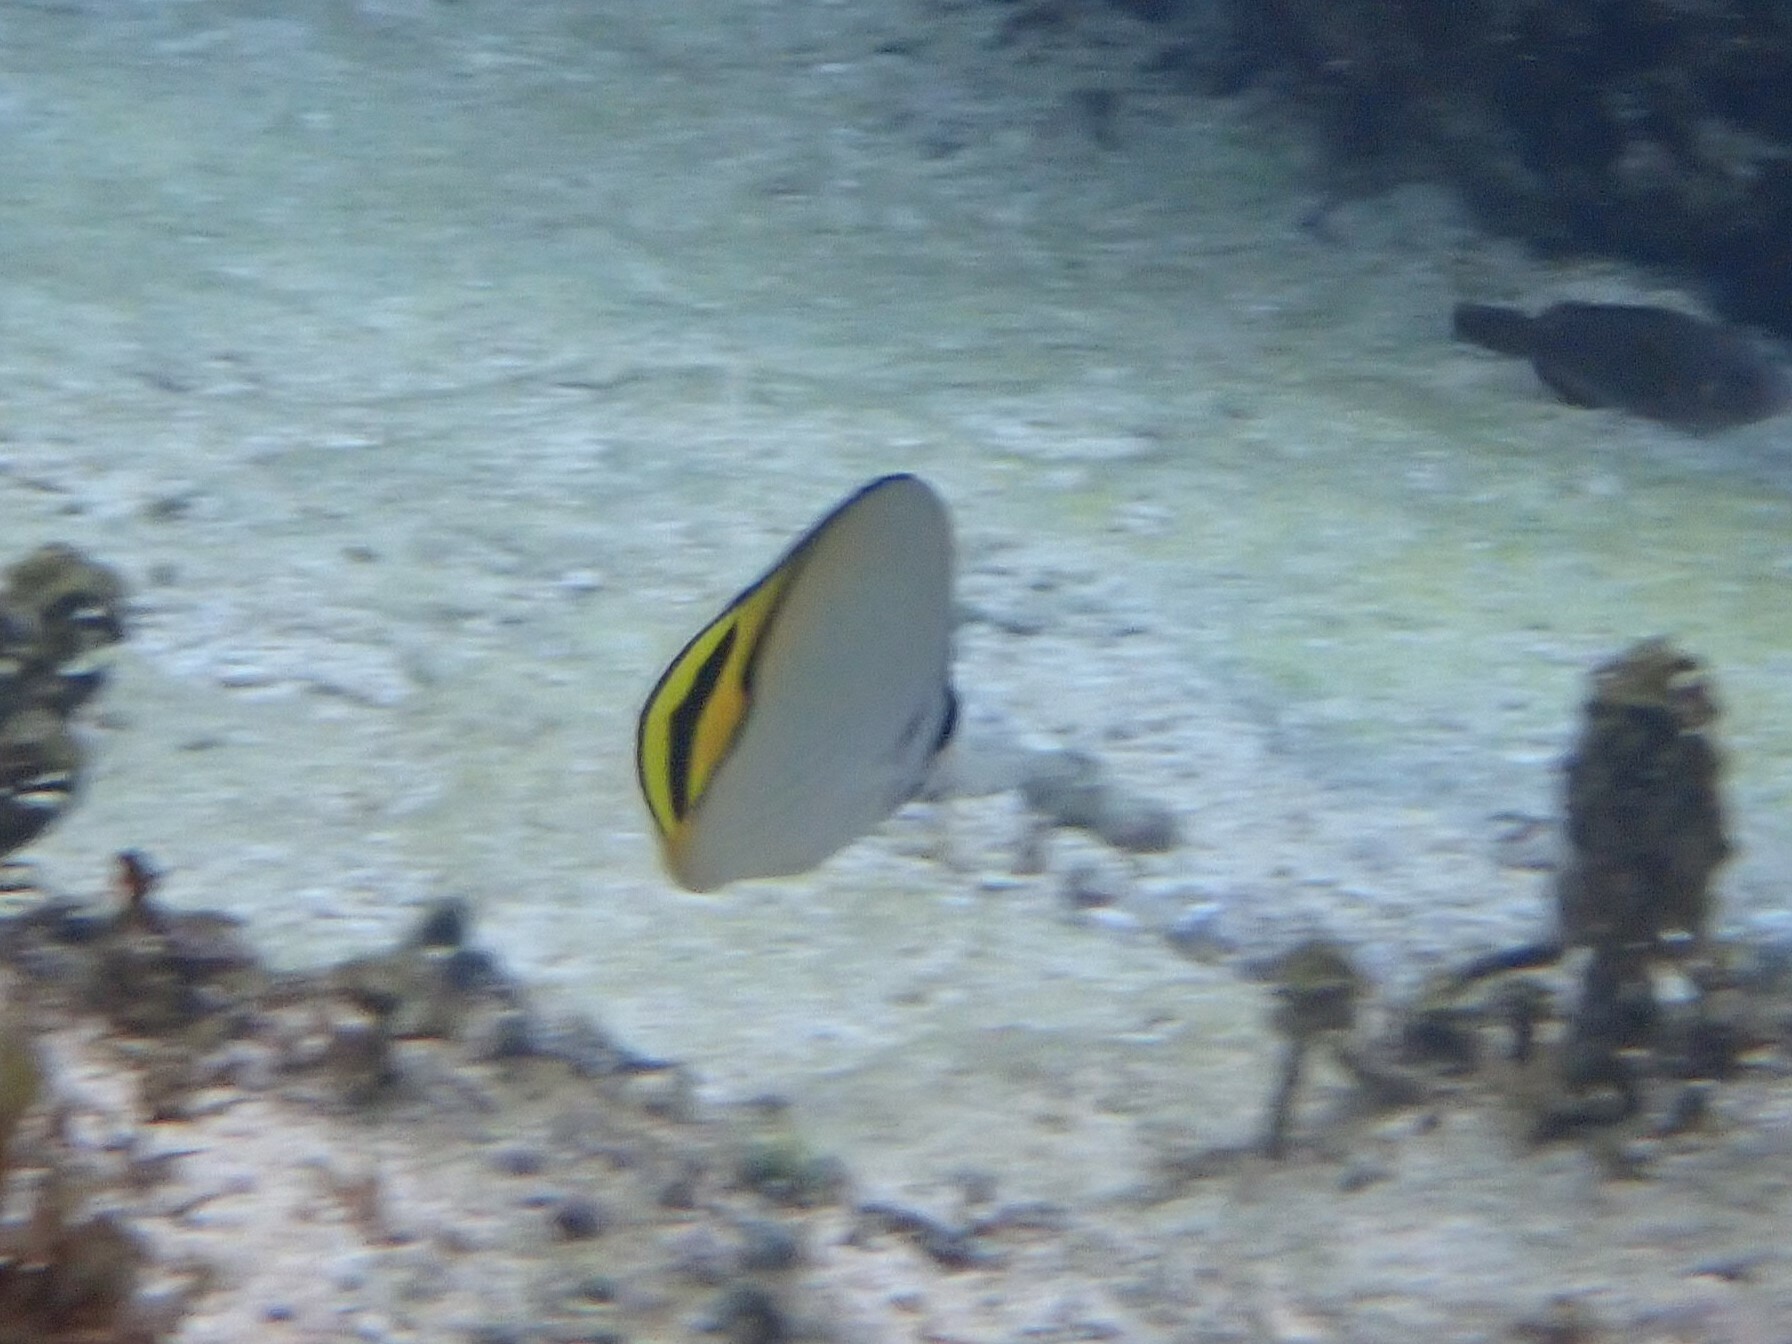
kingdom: Animalia
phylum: Chordata
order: Perciformes
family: Chaetodontidae
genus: Chaetodon
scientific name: Chaetodon vagabundus
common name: Vagabond butterflyfish
